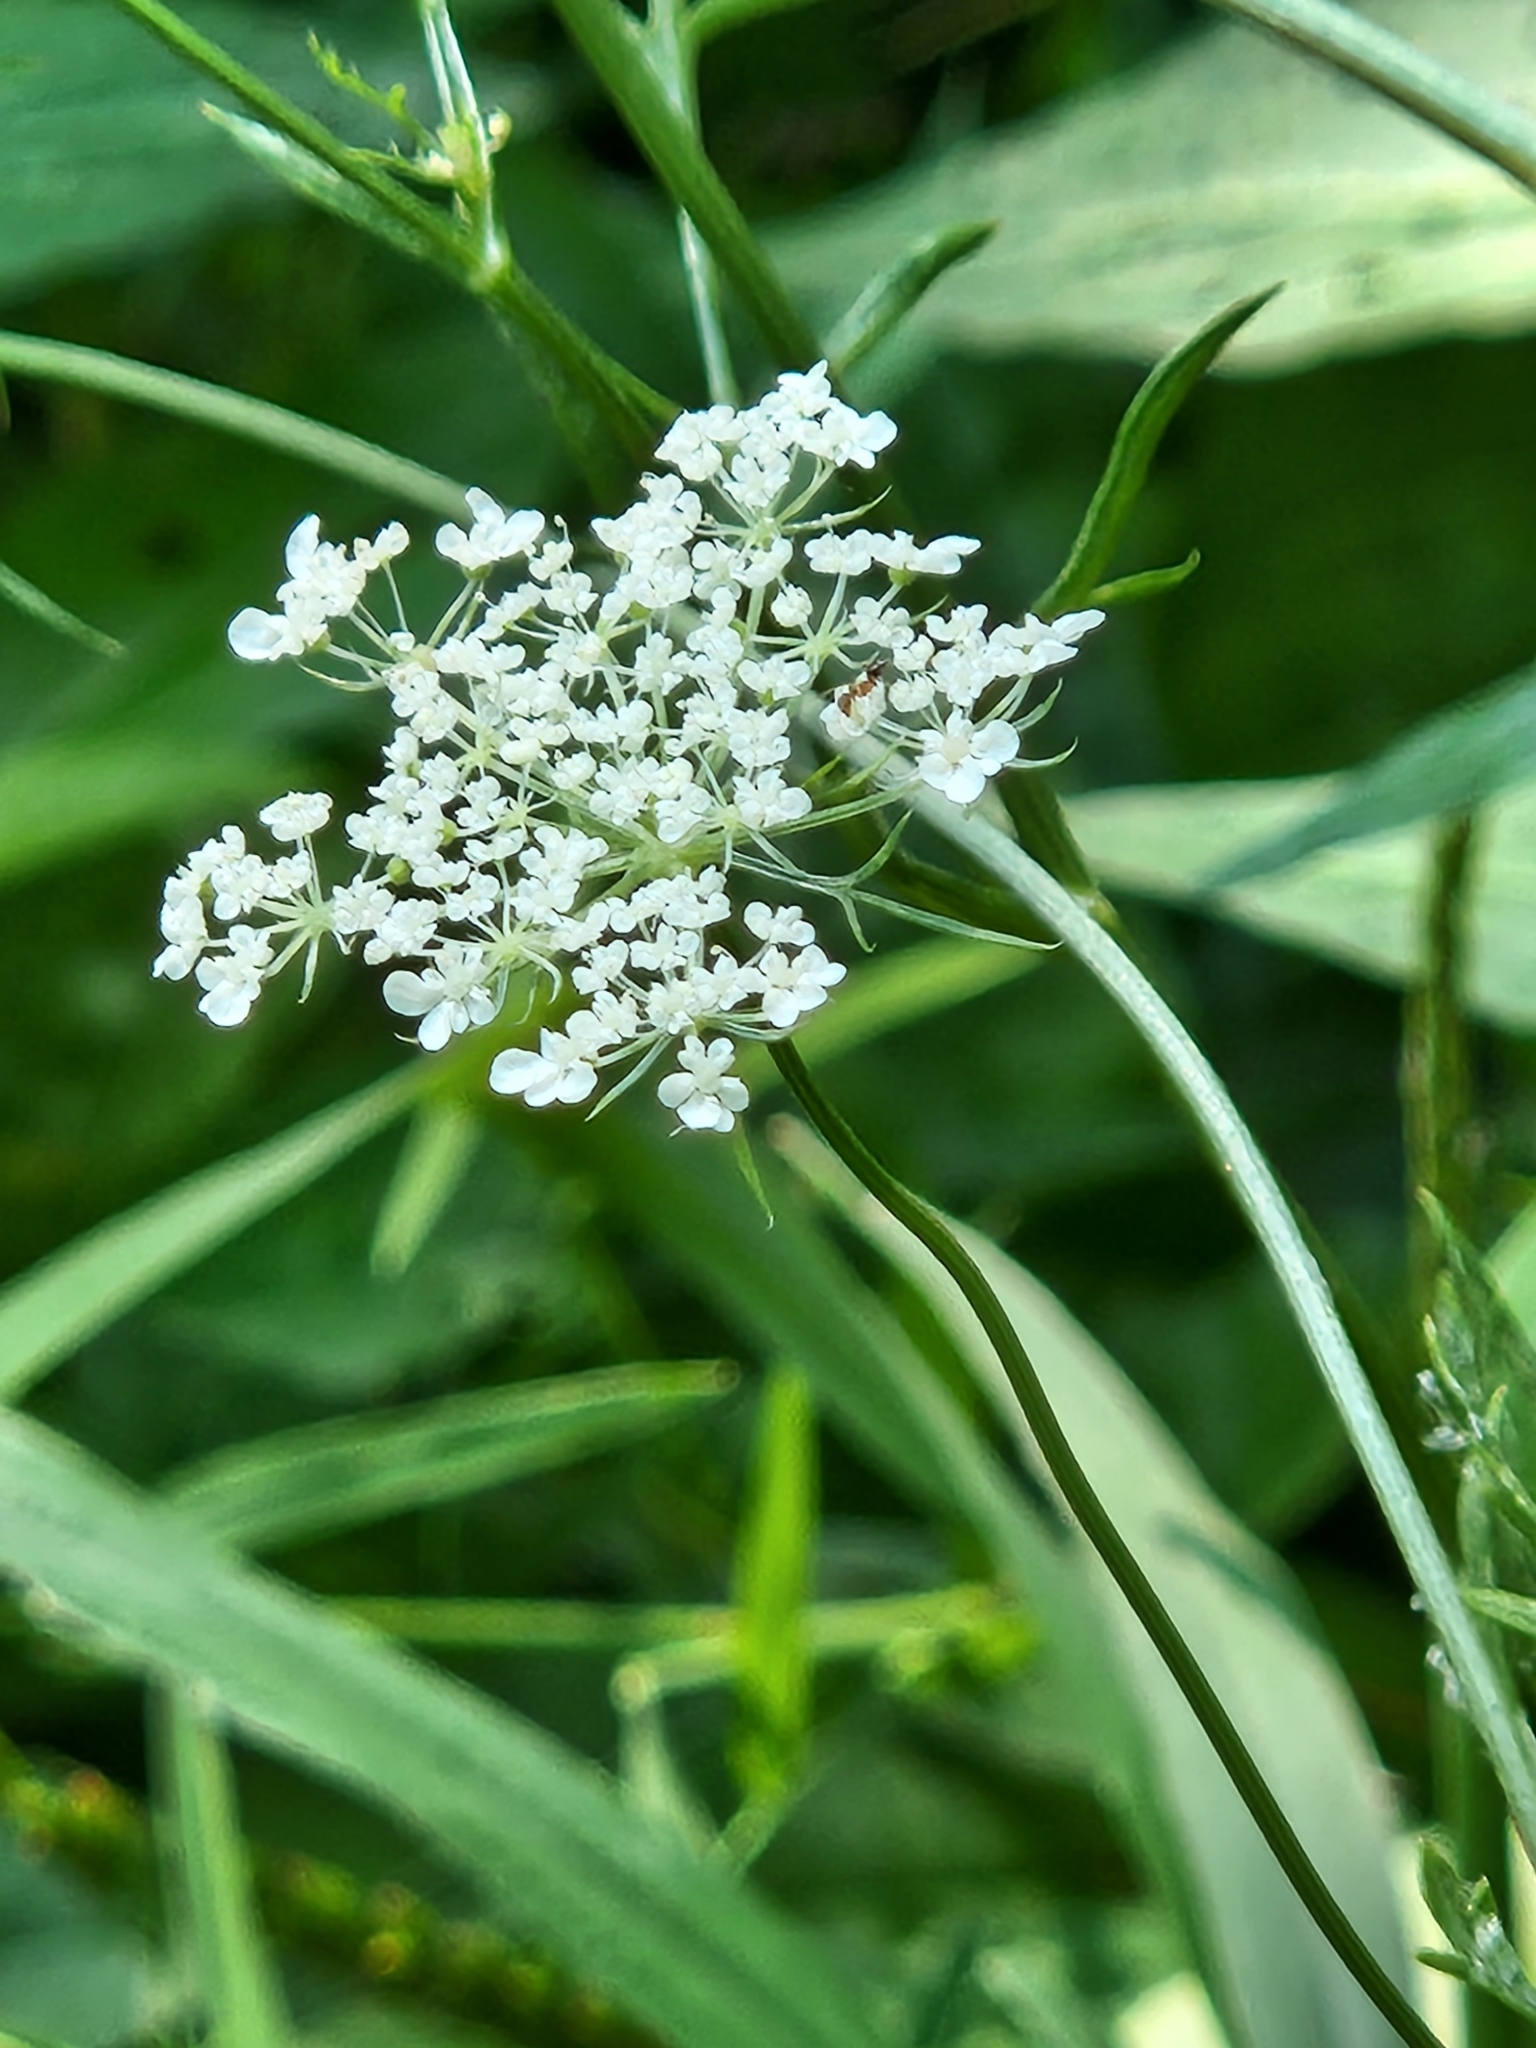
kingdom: Plantae
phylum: Tracheophyta
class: Magnoliopsida
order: Apiales
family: Apiaceae
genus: Daucus
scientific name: Daucus carota
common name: Wild carrot
